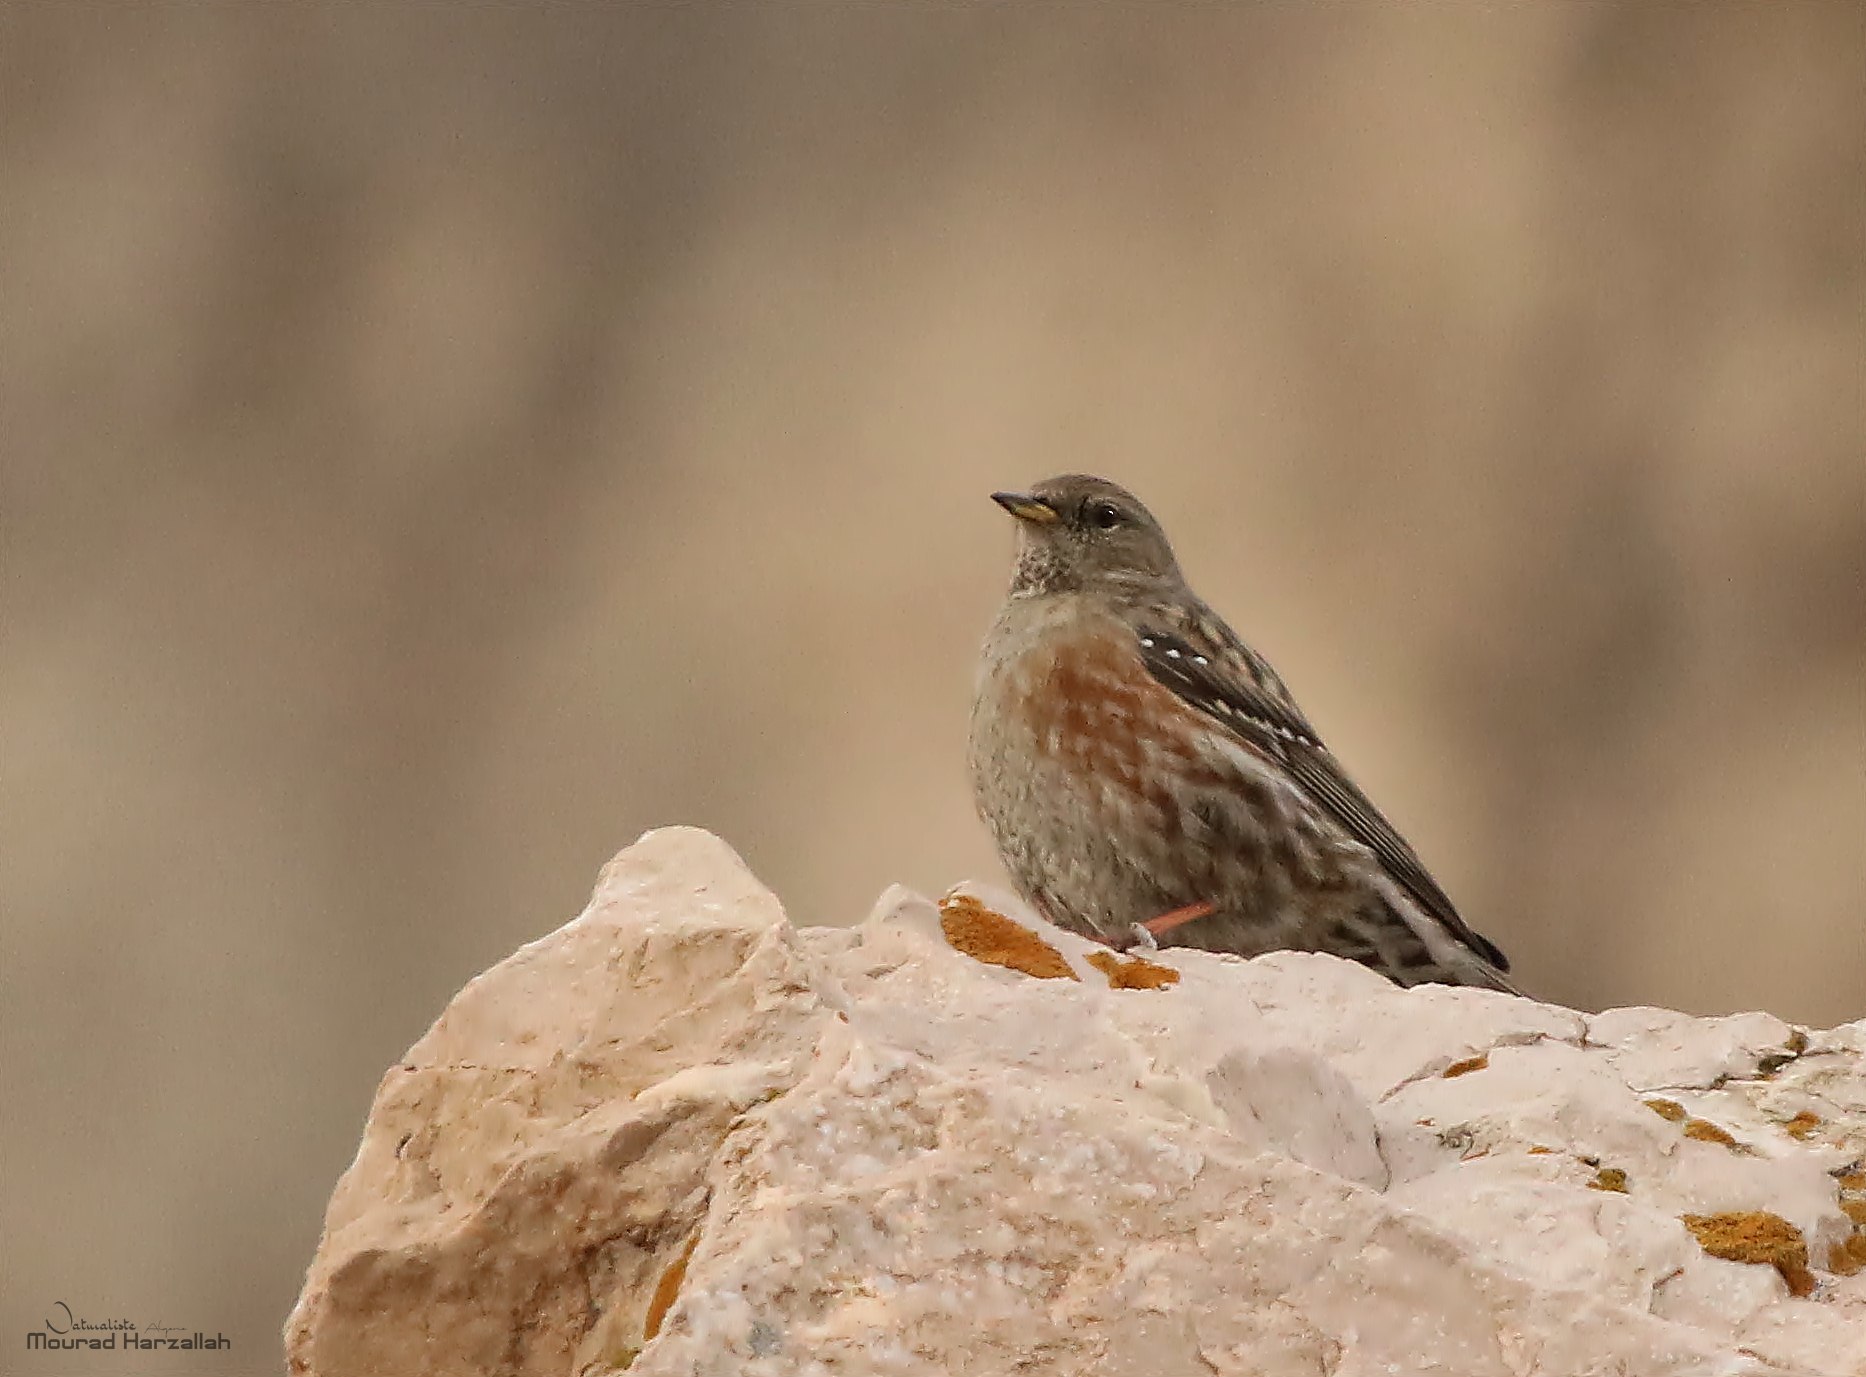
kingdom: Animalia
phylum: Chordata
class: Aves
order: Passeriformes
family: Prunellidae
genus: Prunella
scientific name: Prunella collaris
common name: Alpine accentor
